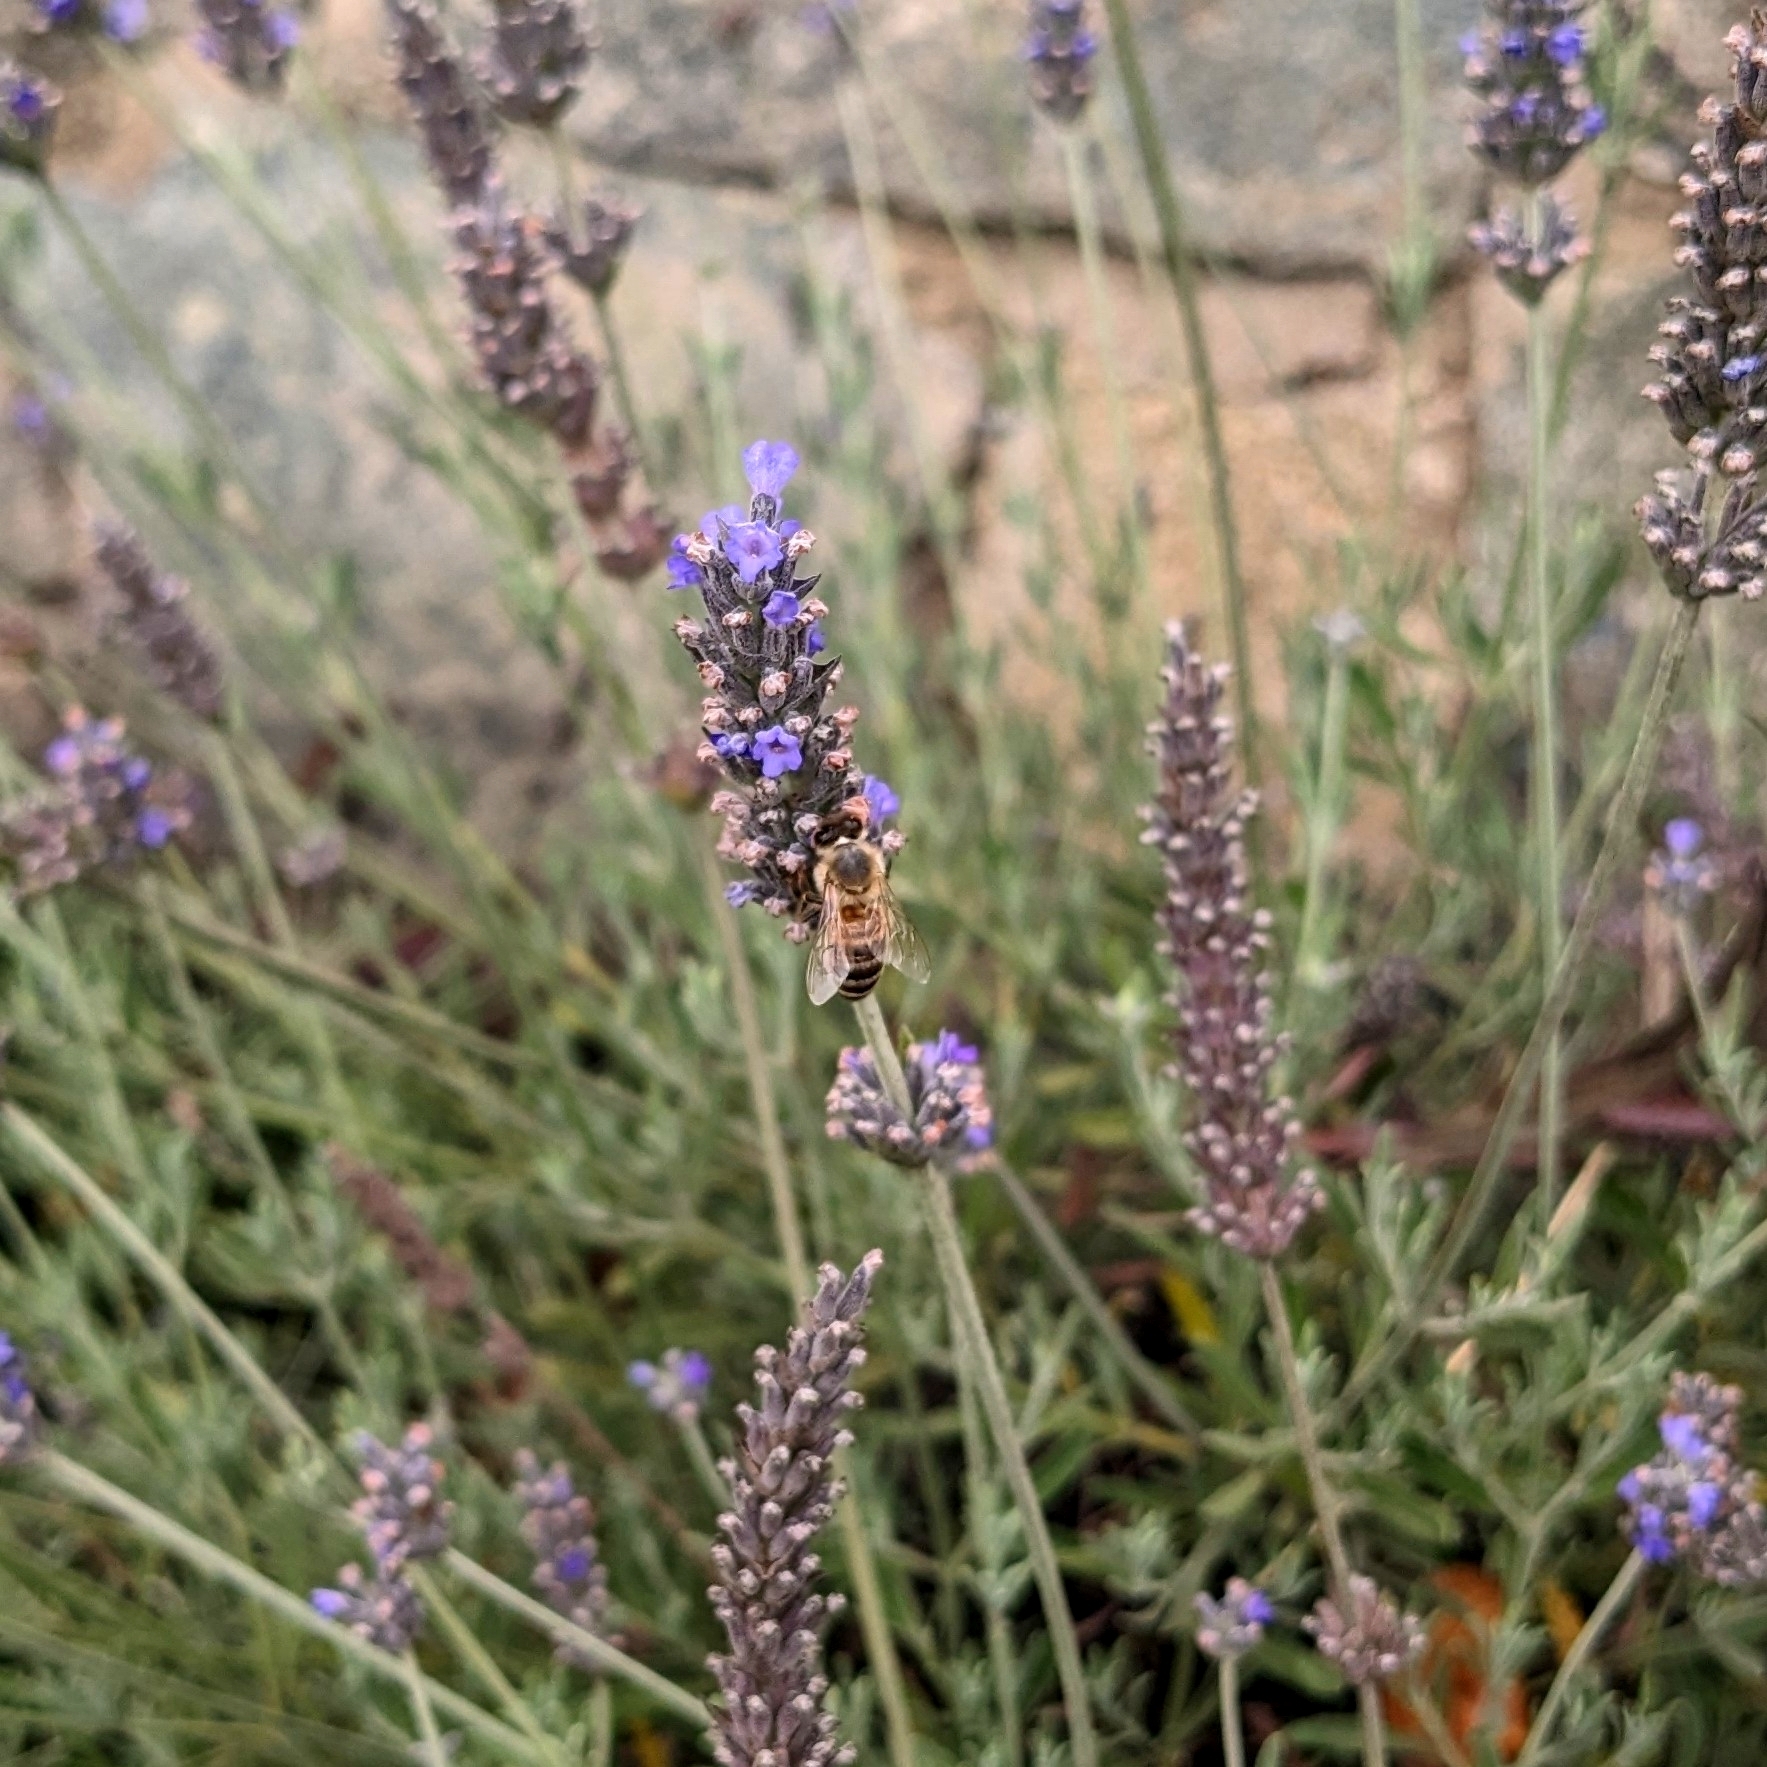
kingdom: Animalia
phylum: Arthropoda
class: Insecta
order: Hymenoptera
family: Apidae
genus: Apis
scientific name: Apis mellifera
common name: Honey bee
